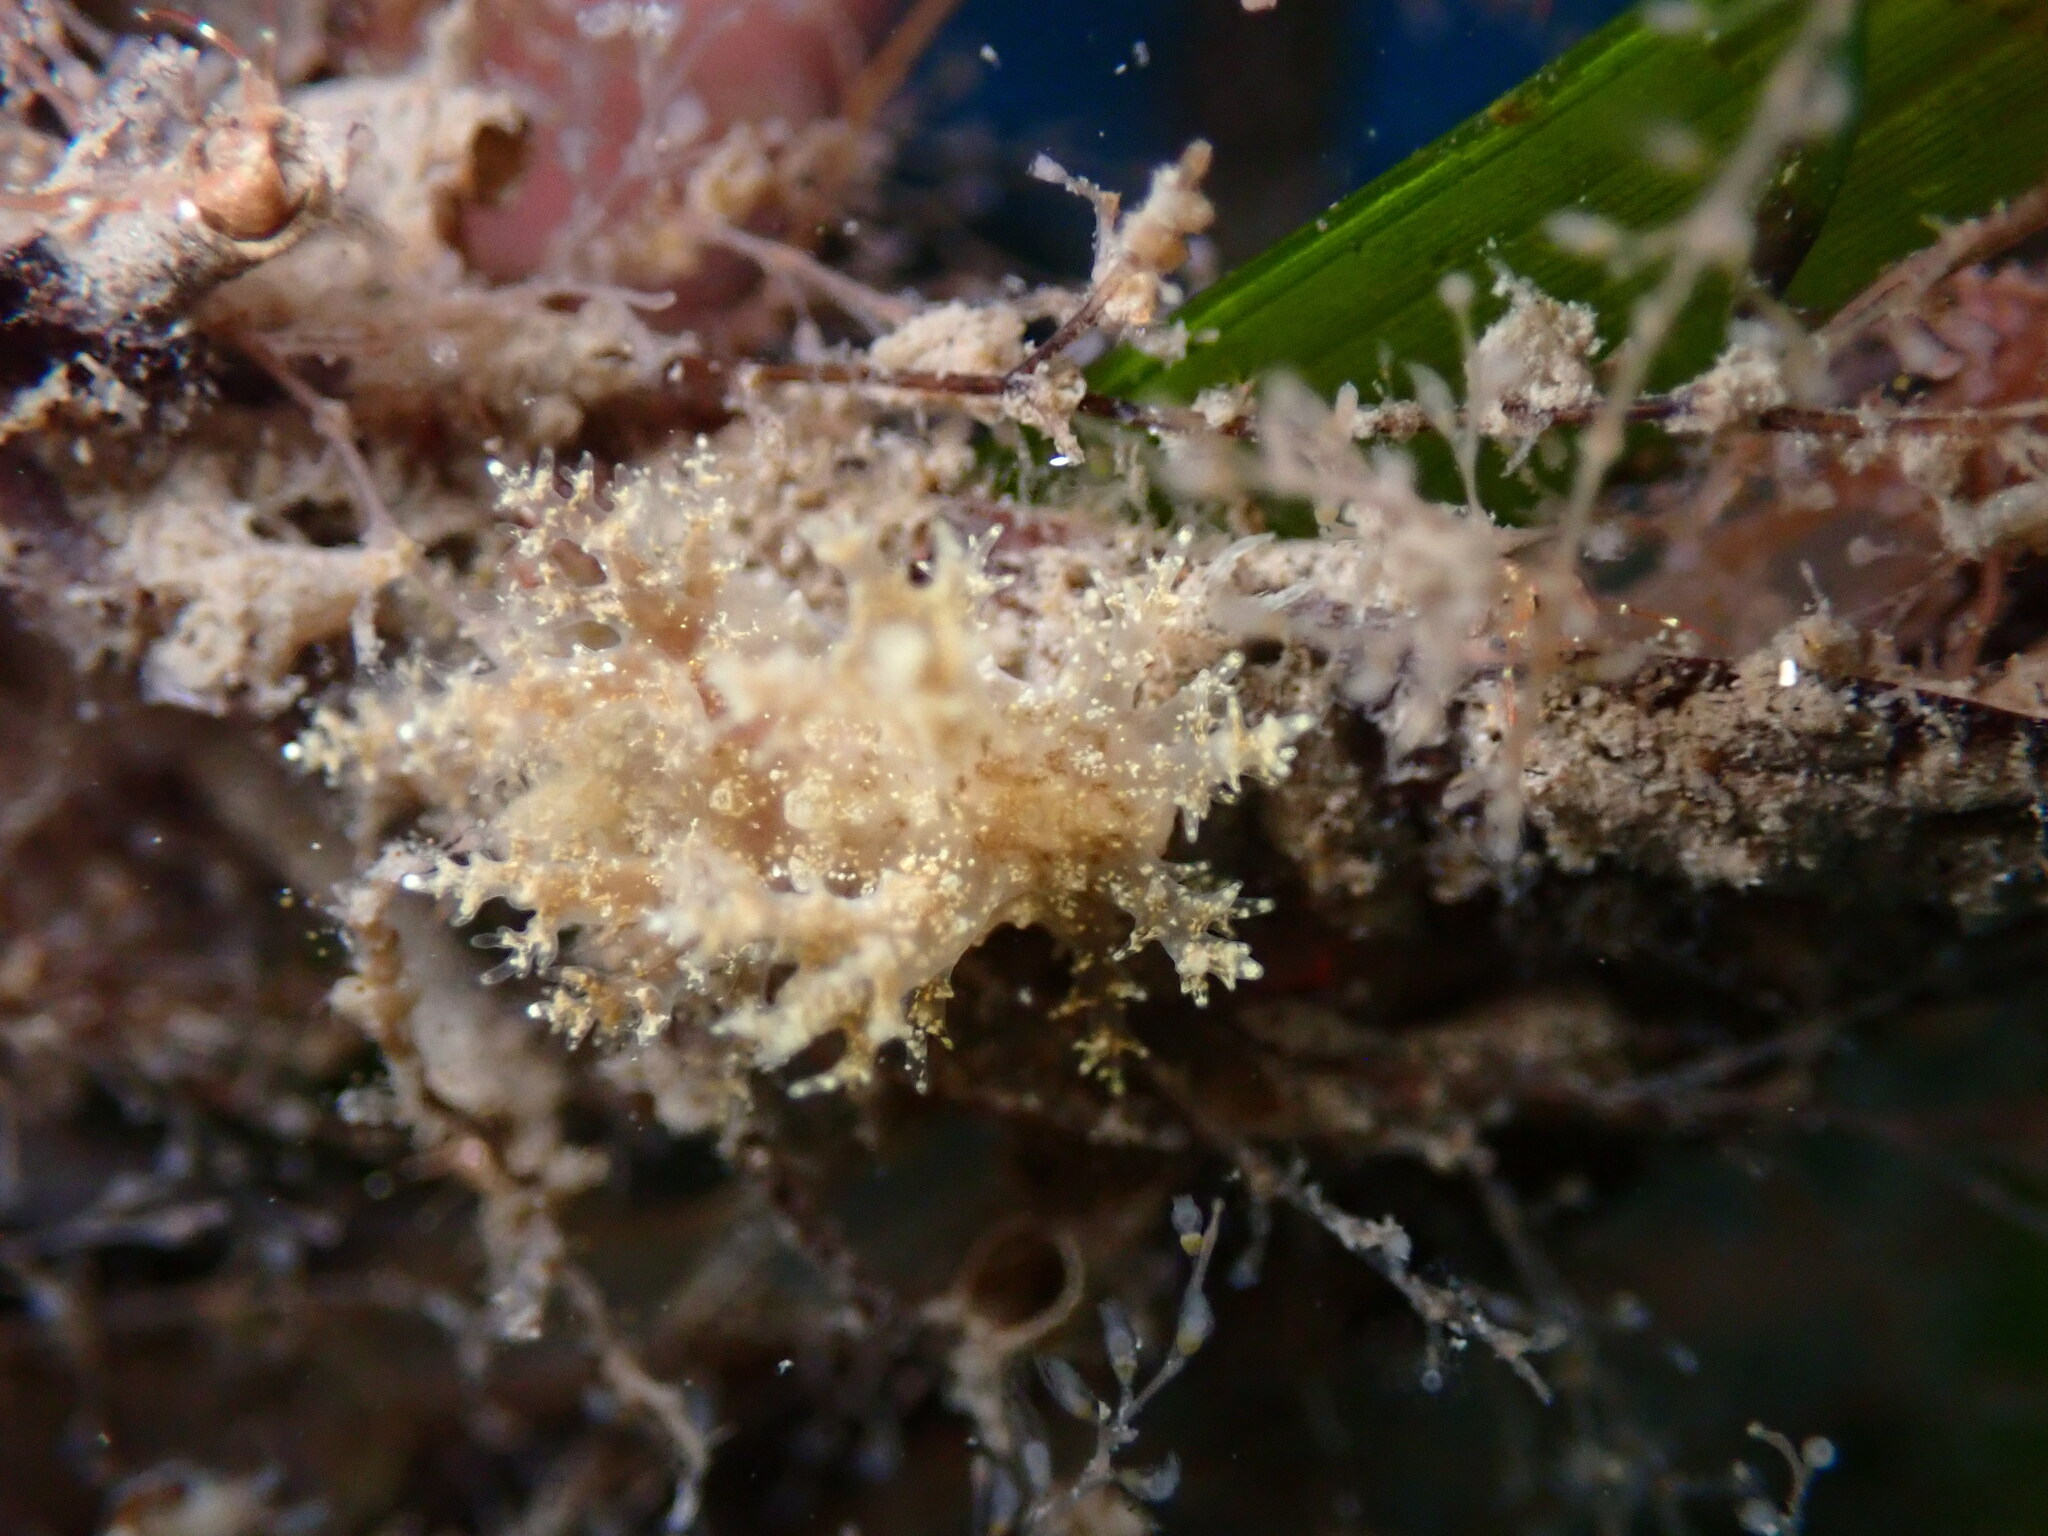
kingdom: Animalia
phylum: Mollusca
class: Gastropoda
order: Nudibranchia
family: Dendronotidae
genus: Dendronotus
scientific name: Dendronotus venustus
